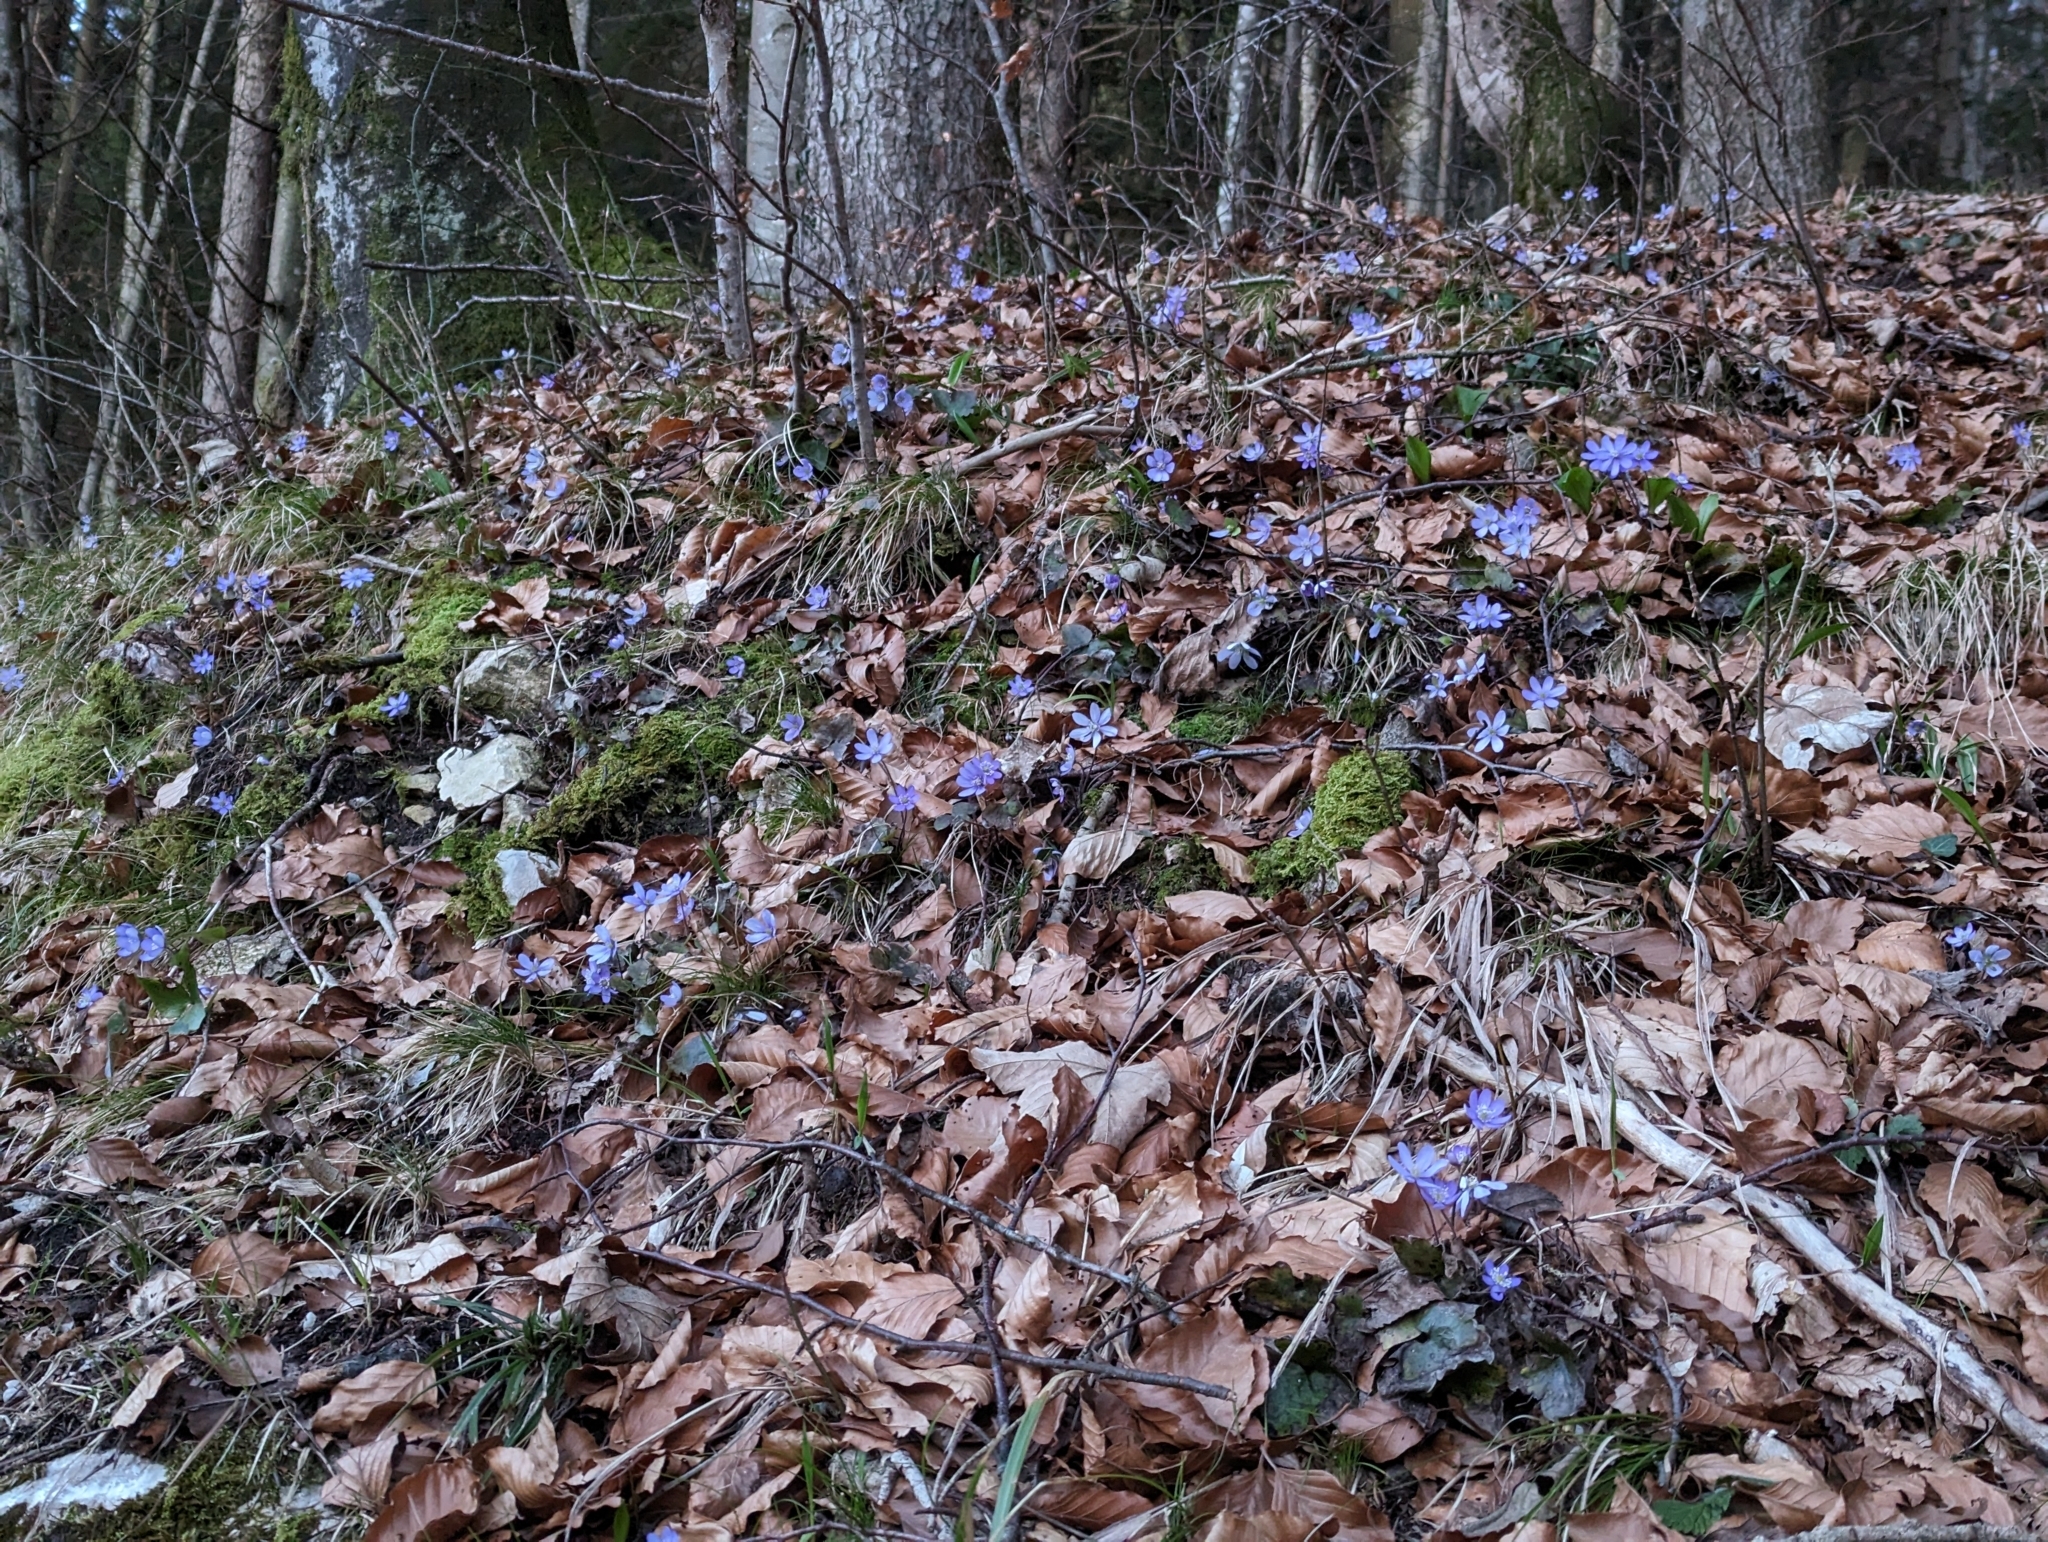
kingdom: Plantae
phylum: Tracheophyta
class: Magnoliopsida
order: Ranunculales
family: Ranunculaceae
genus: Hepatica
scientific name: Hepatica nobilis
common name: Liverleaf
